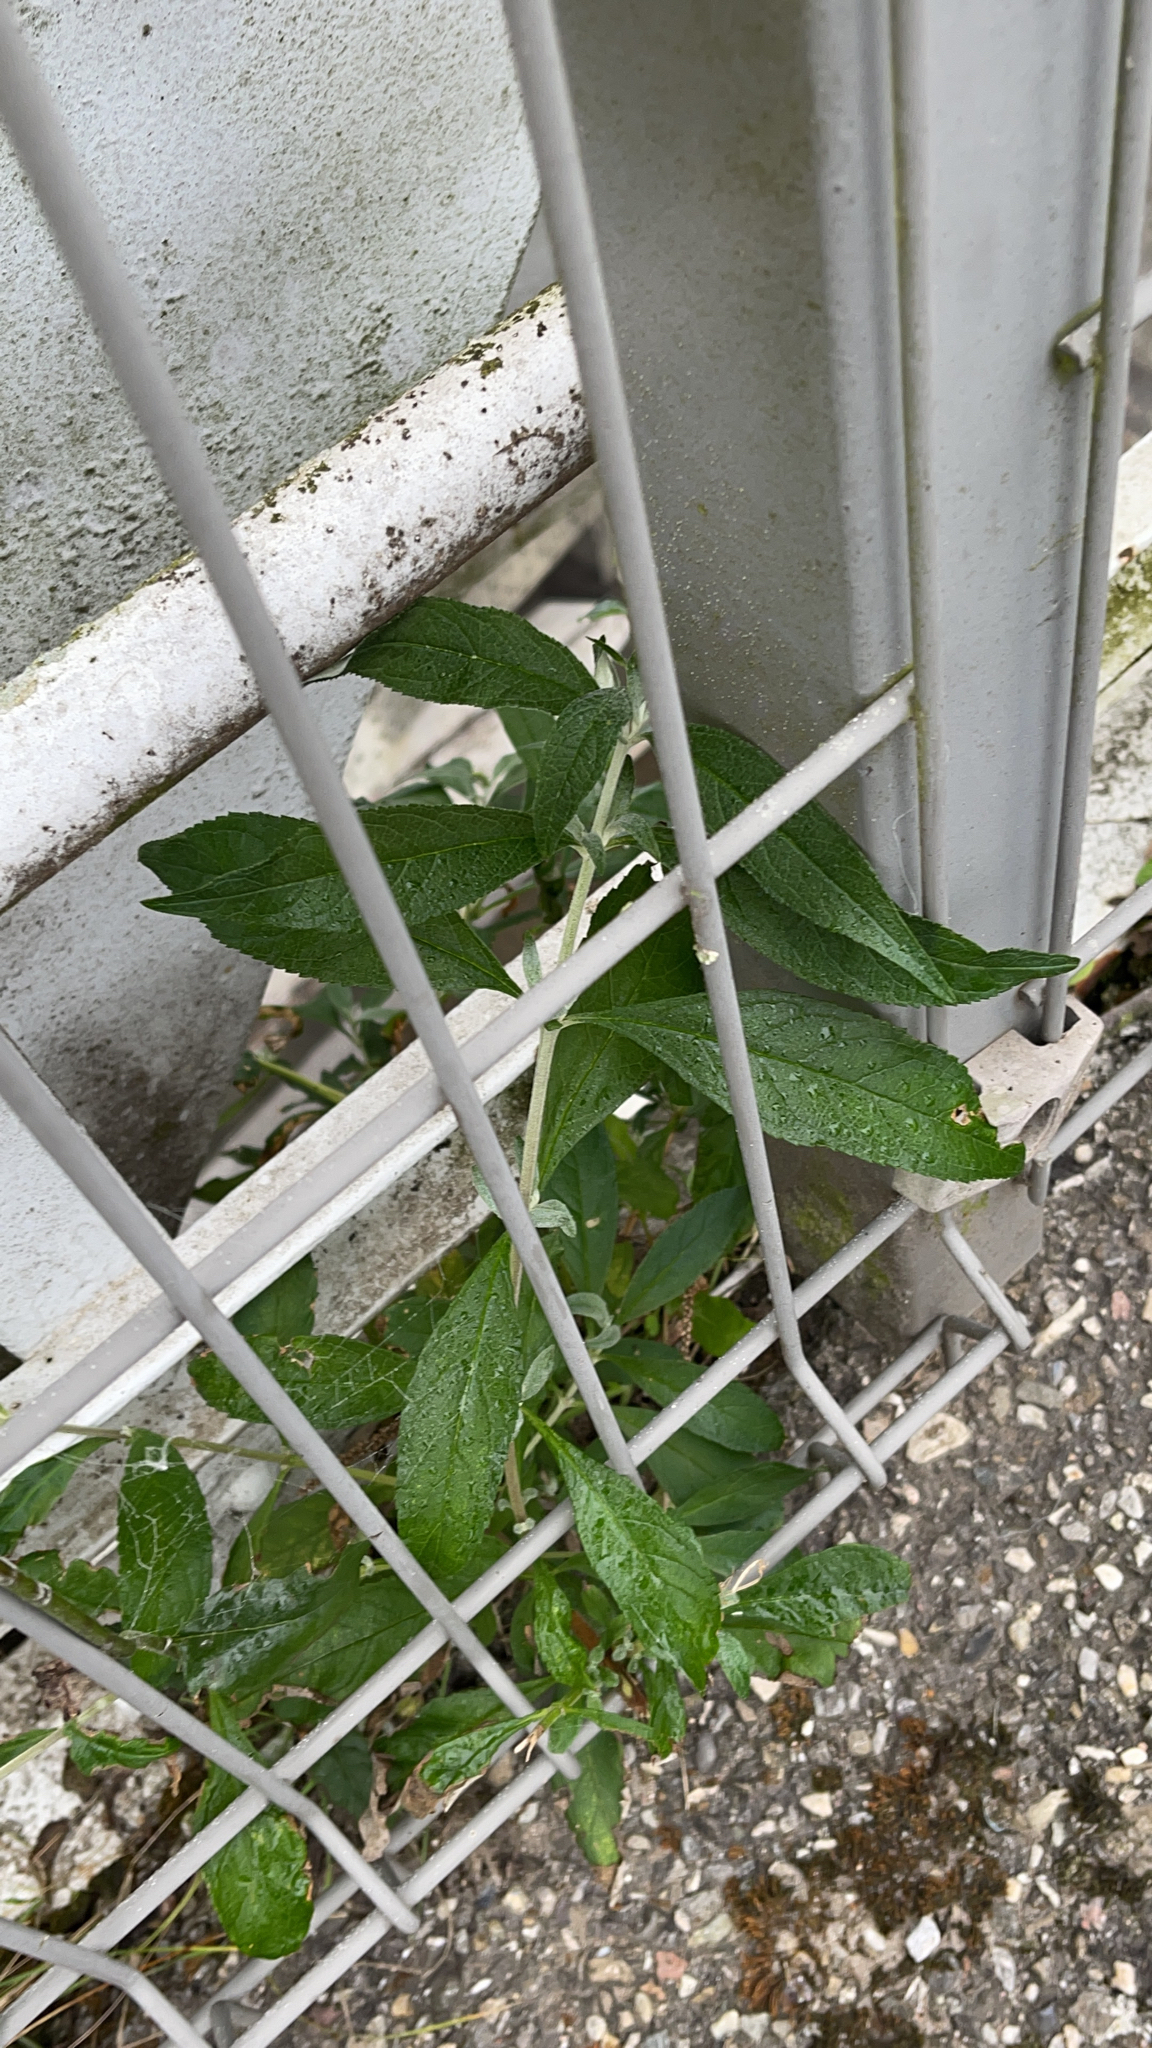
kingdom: Plantae
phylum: Tracheophyta
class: Magnoliopsida
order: Lamiales
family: Scrophulariaceae
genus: Buddleja
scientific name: Buddleja davidii
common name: Butterfly-bush
